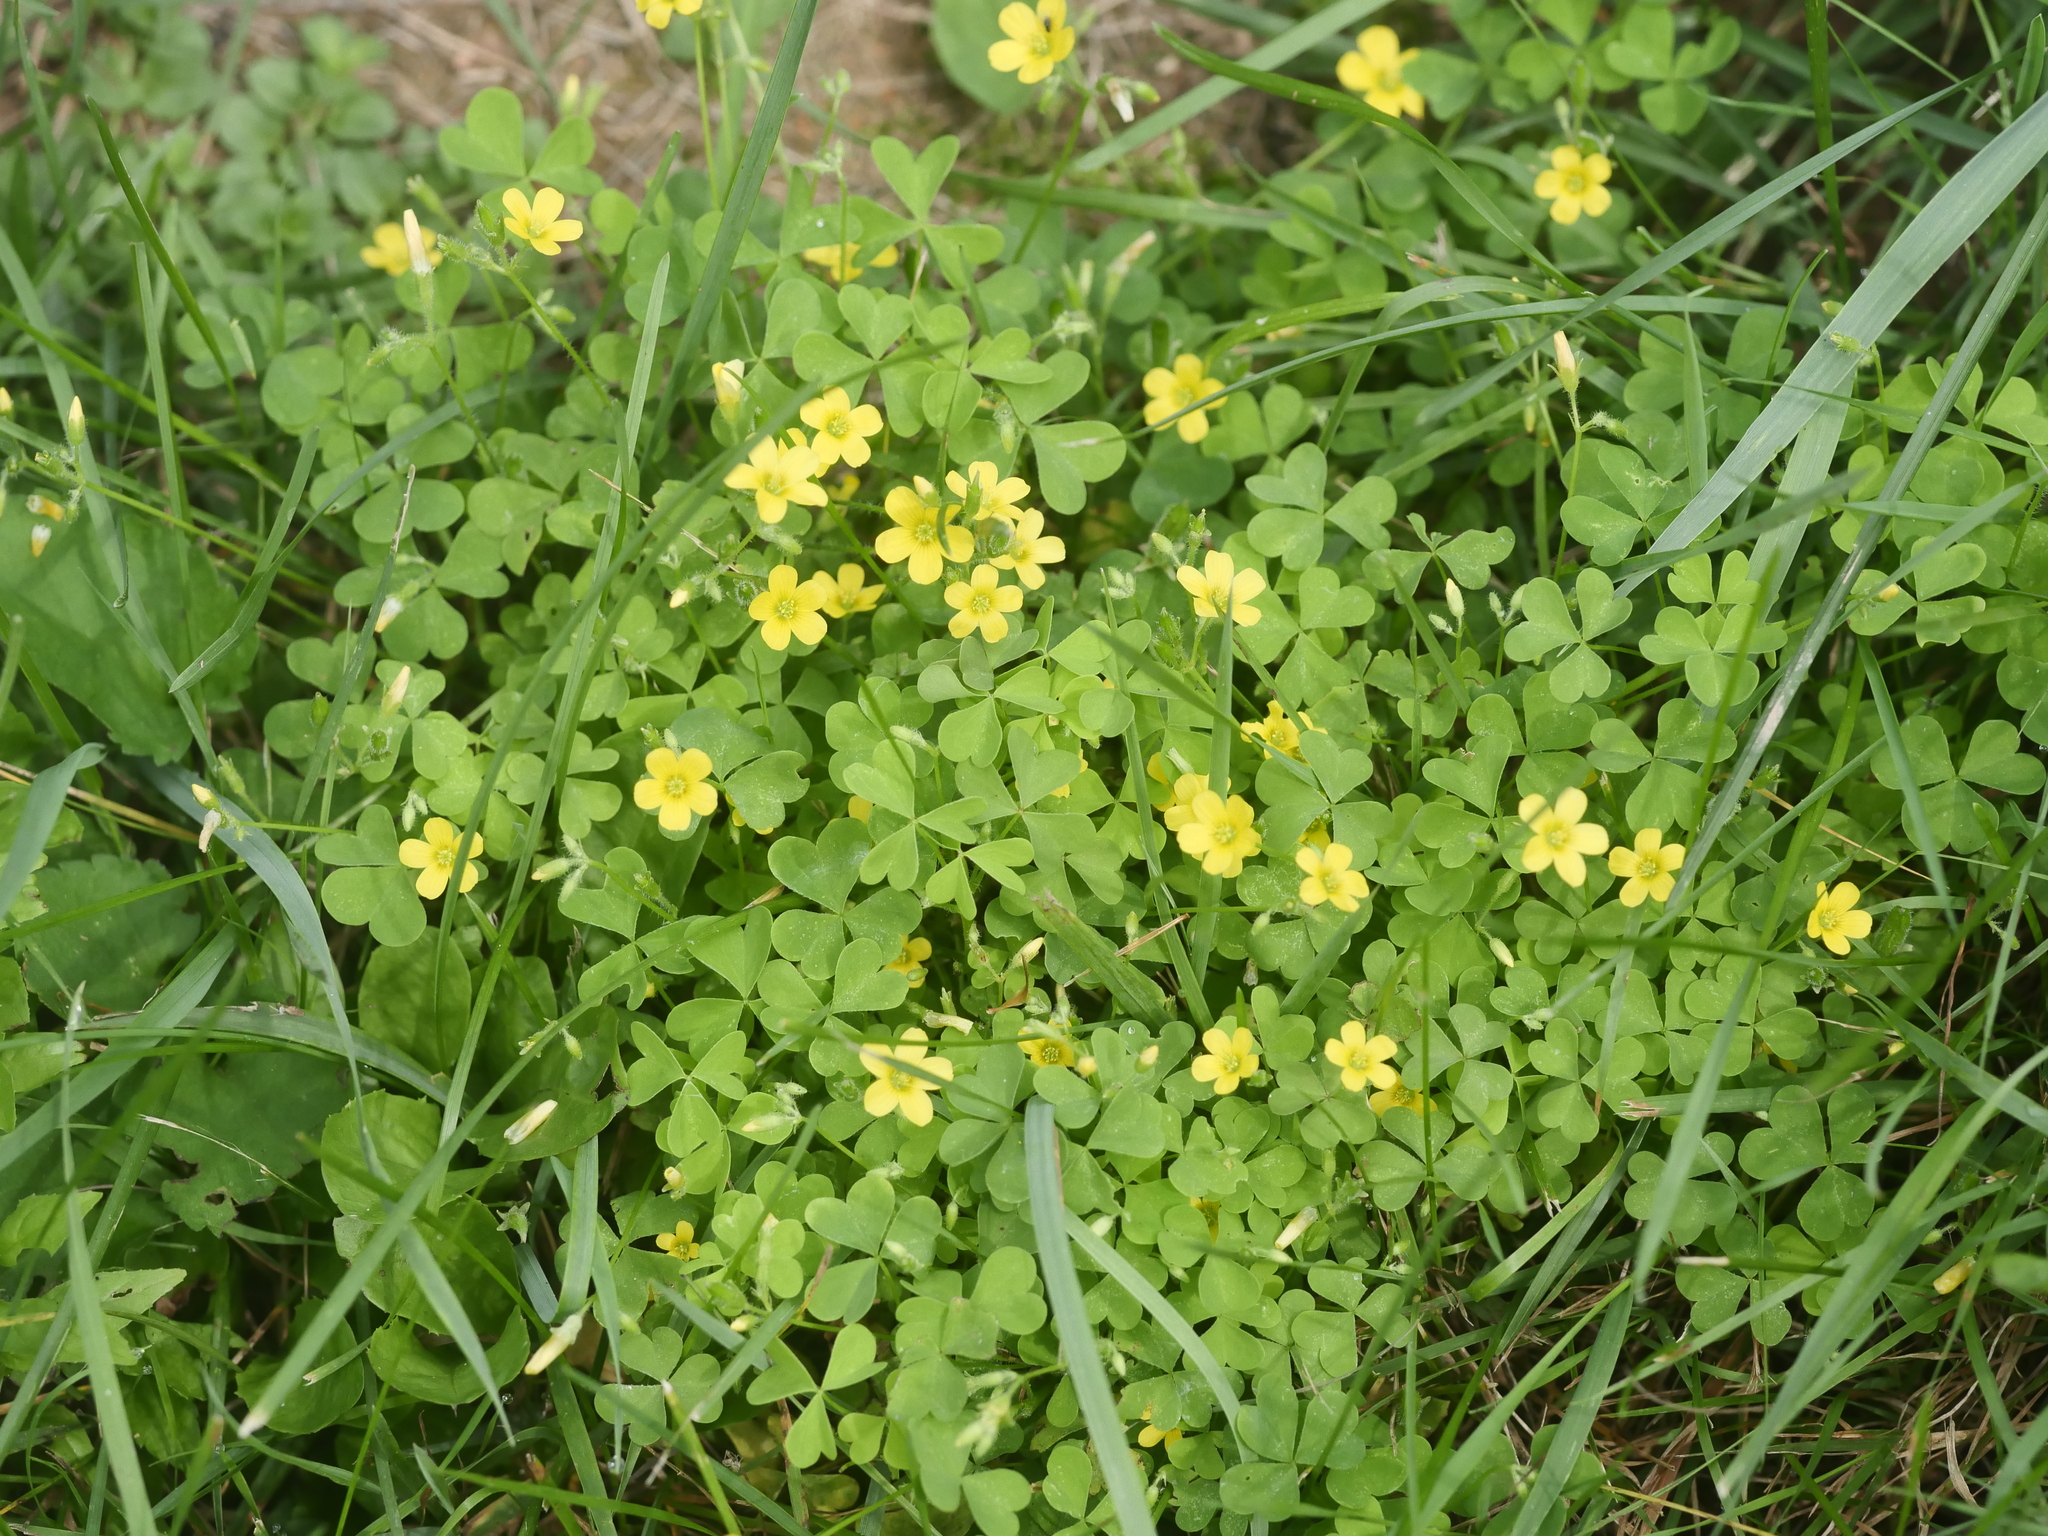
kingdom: Plantae
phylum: Tracheophyta
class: Magnoliopsida
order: Oxalidales
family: Oxalidaceae
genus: Oxalis
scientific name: Oxalis stricta
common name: Upright yellow-sorrel
